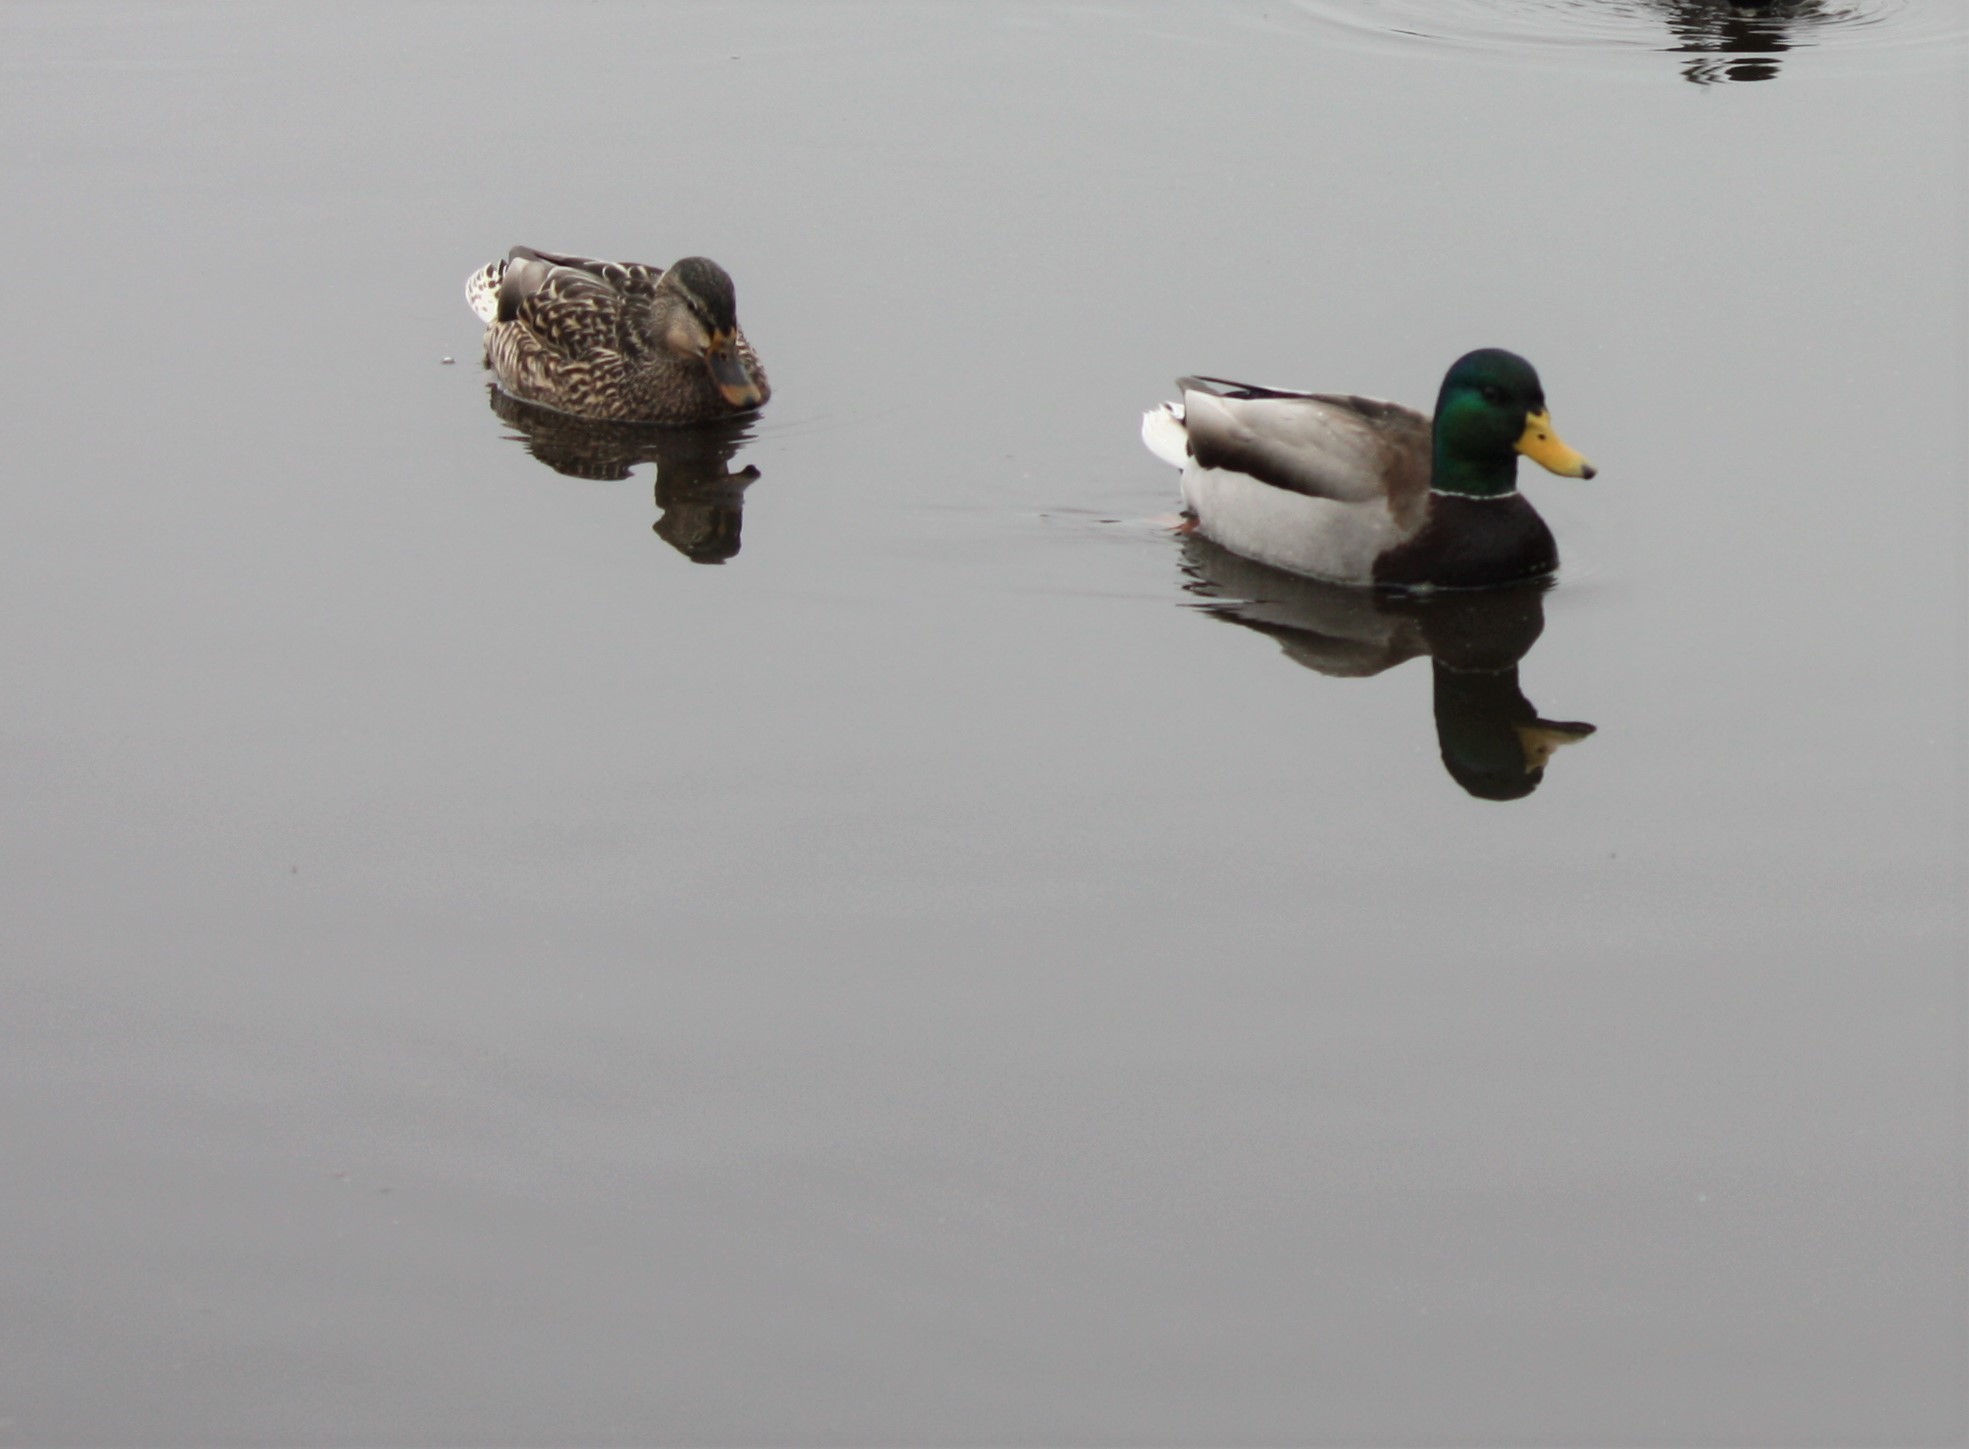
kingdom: Animalia
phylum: Chordata
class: Aves
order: Anseriformes
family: Anatidae
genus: Anas
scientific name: Anas platyrhynchos
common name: Mallard
